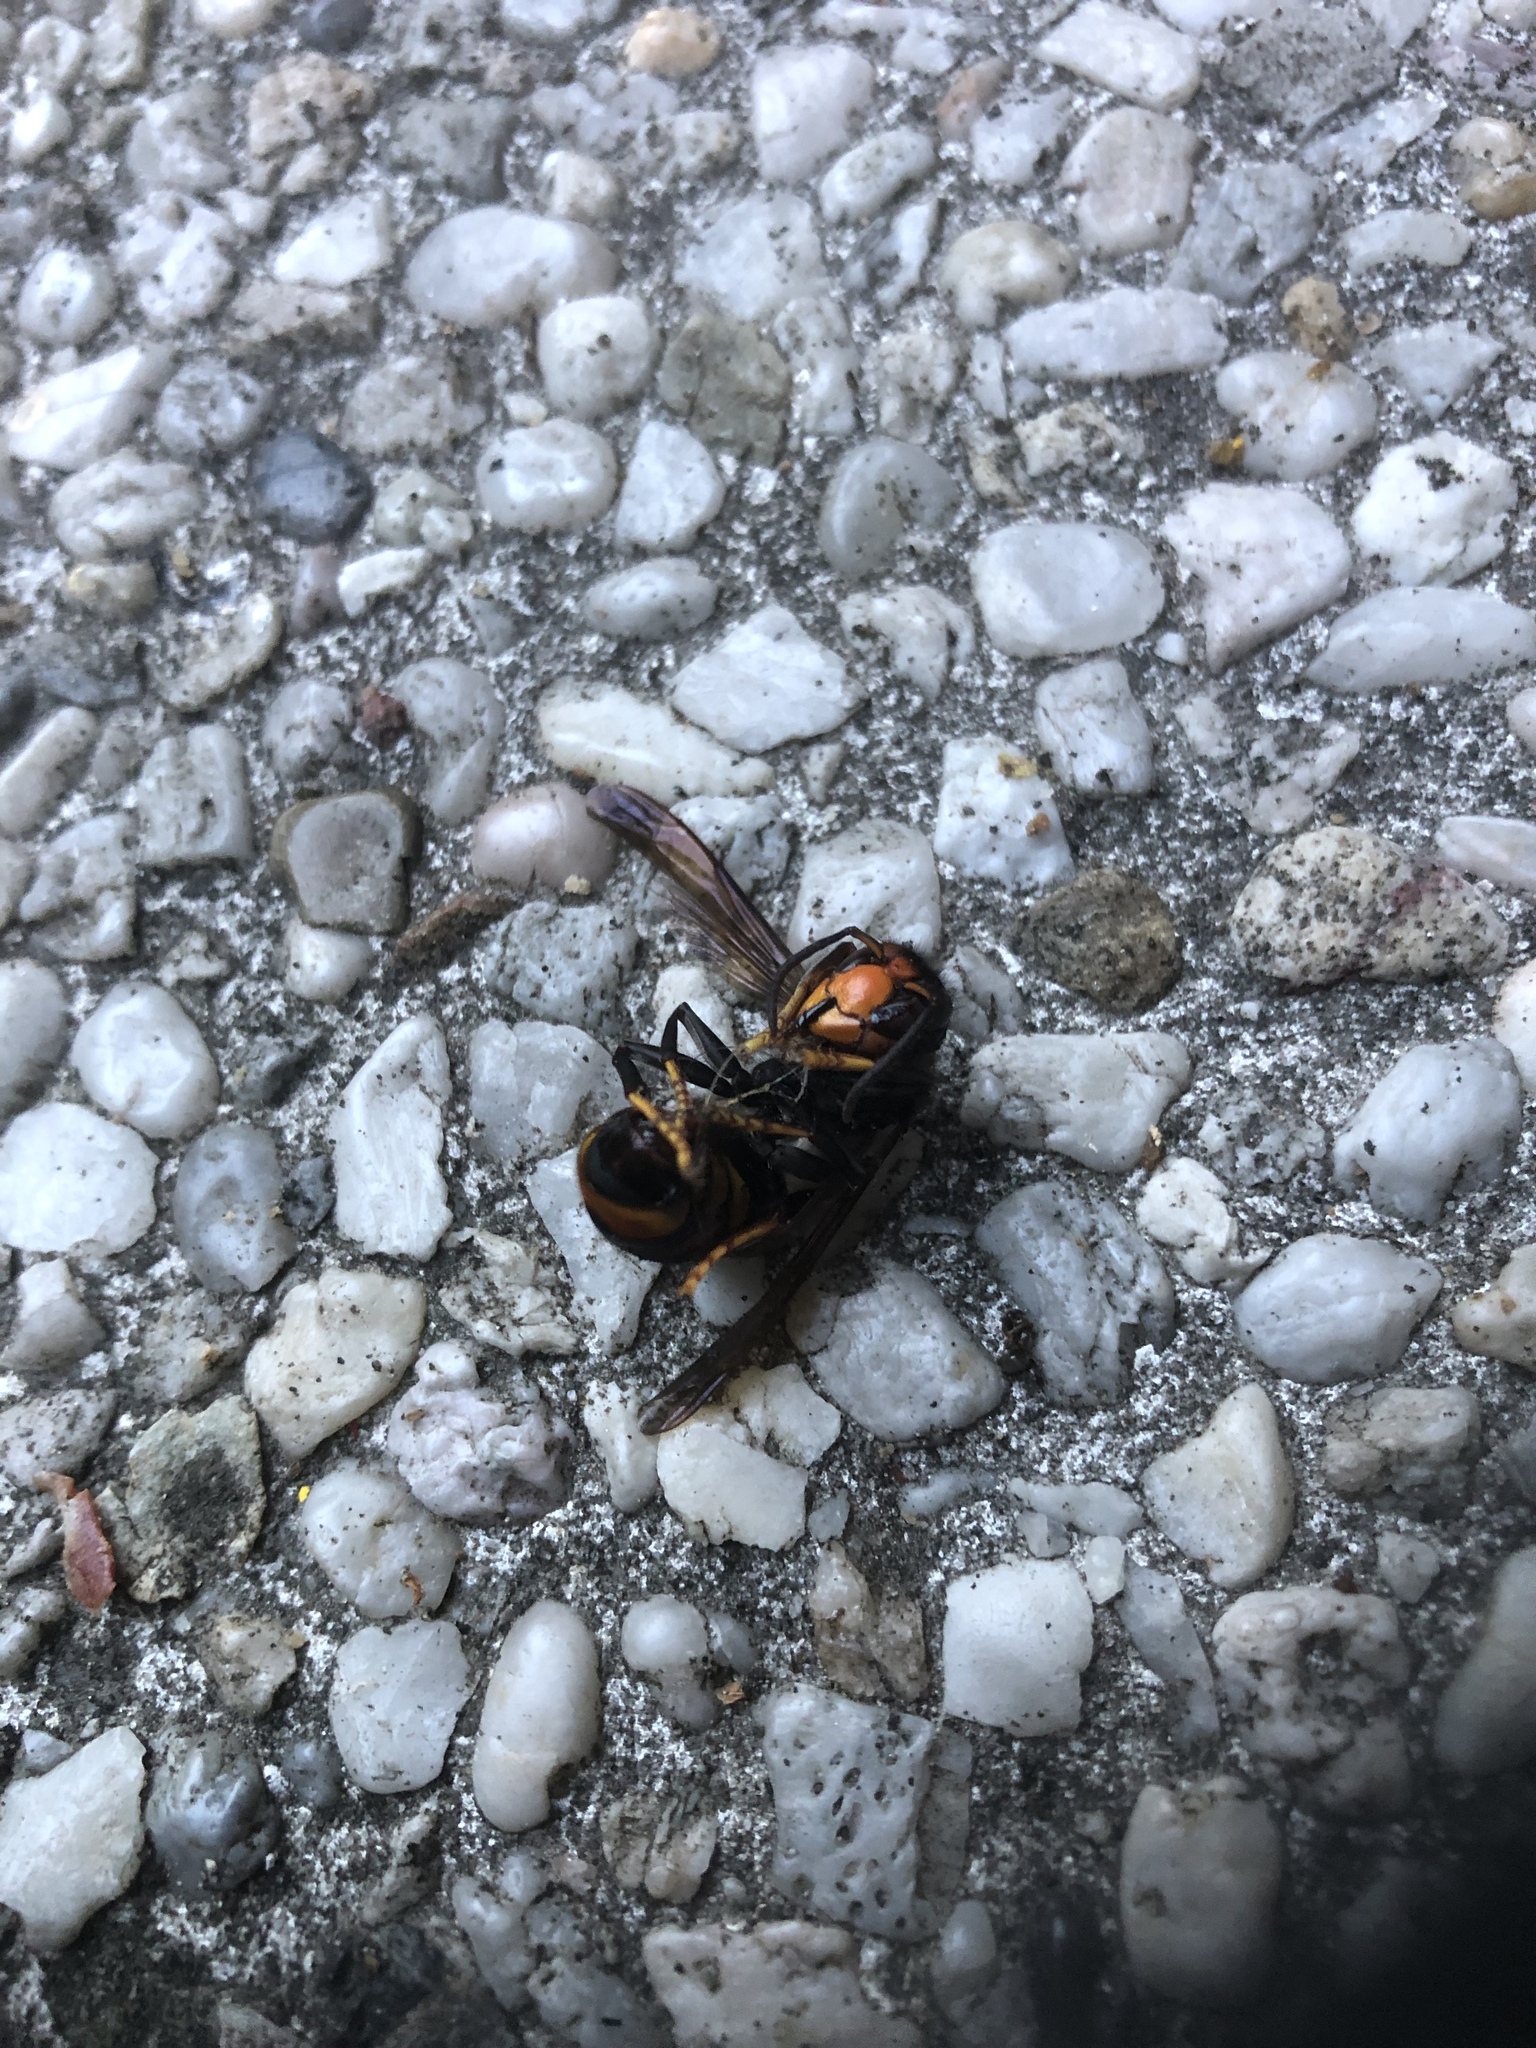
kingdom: Animalia
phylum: Arthropoda
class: Insecta
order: Hymenoptera
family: Vespidae
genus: Vespa
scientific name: Vespa velutina
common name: Asian hornet
